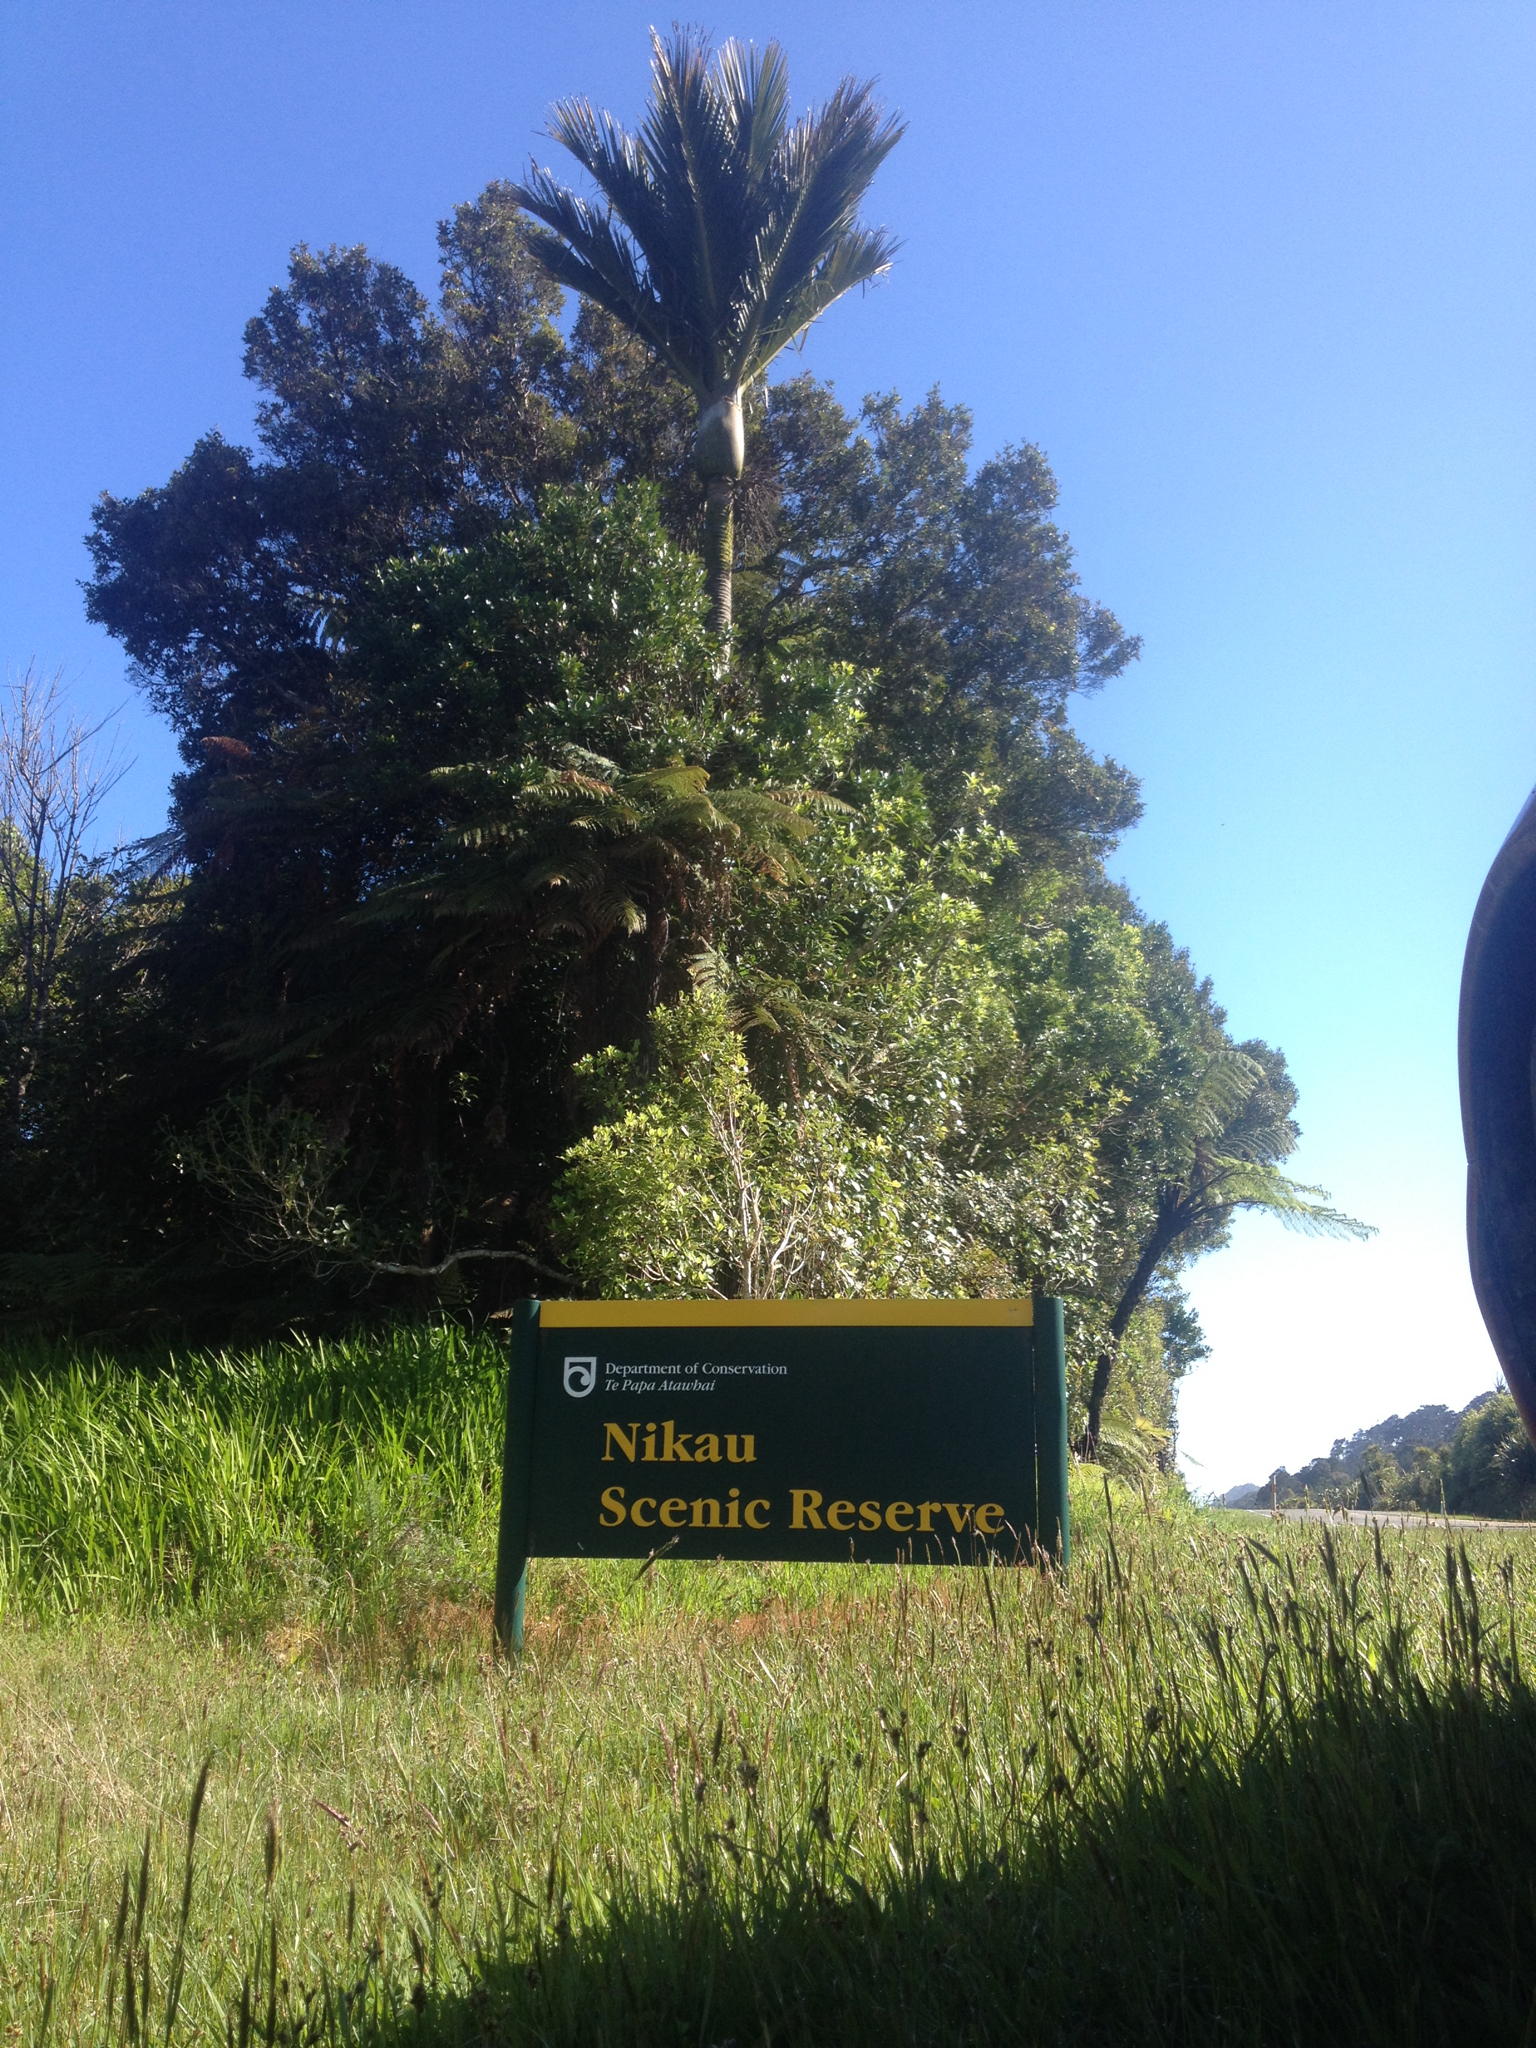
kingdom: Plantae
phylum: Tracheophyta
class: Liliopsida
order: Arecales
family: Arecaceae
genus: Rhopalostylis
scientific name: Rhopalostylis sapida
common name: Feather-duster palm
